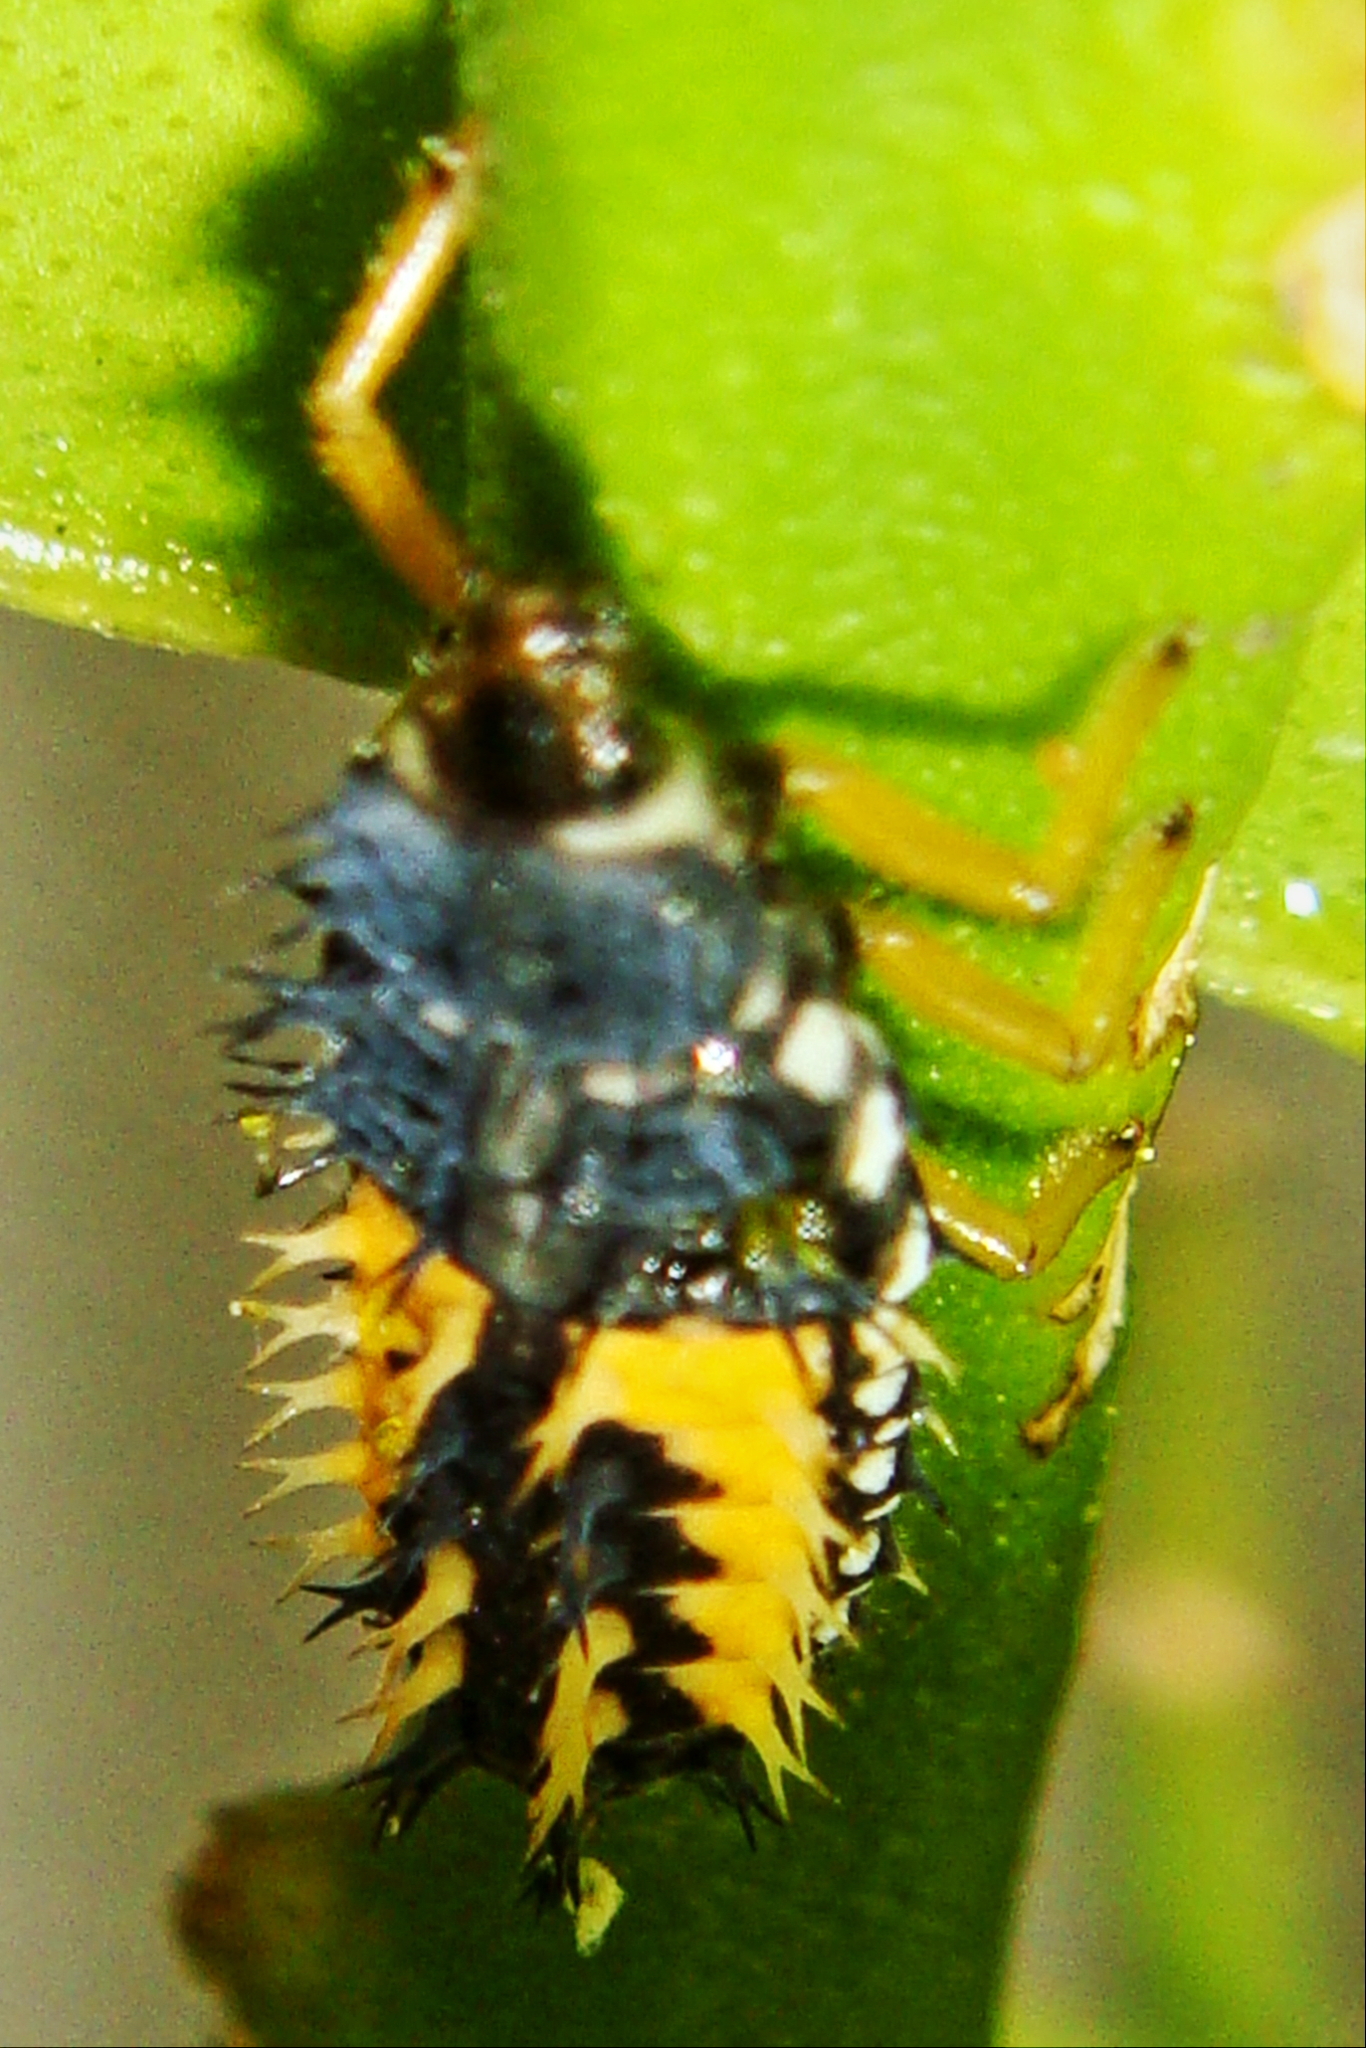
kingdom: Animalia
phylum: Arthropoda
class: Insecta
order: Coleoptera
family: Coccinellidae
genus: Harmonia
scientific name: Harmonia axyridis
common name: Harlequin ladybird
